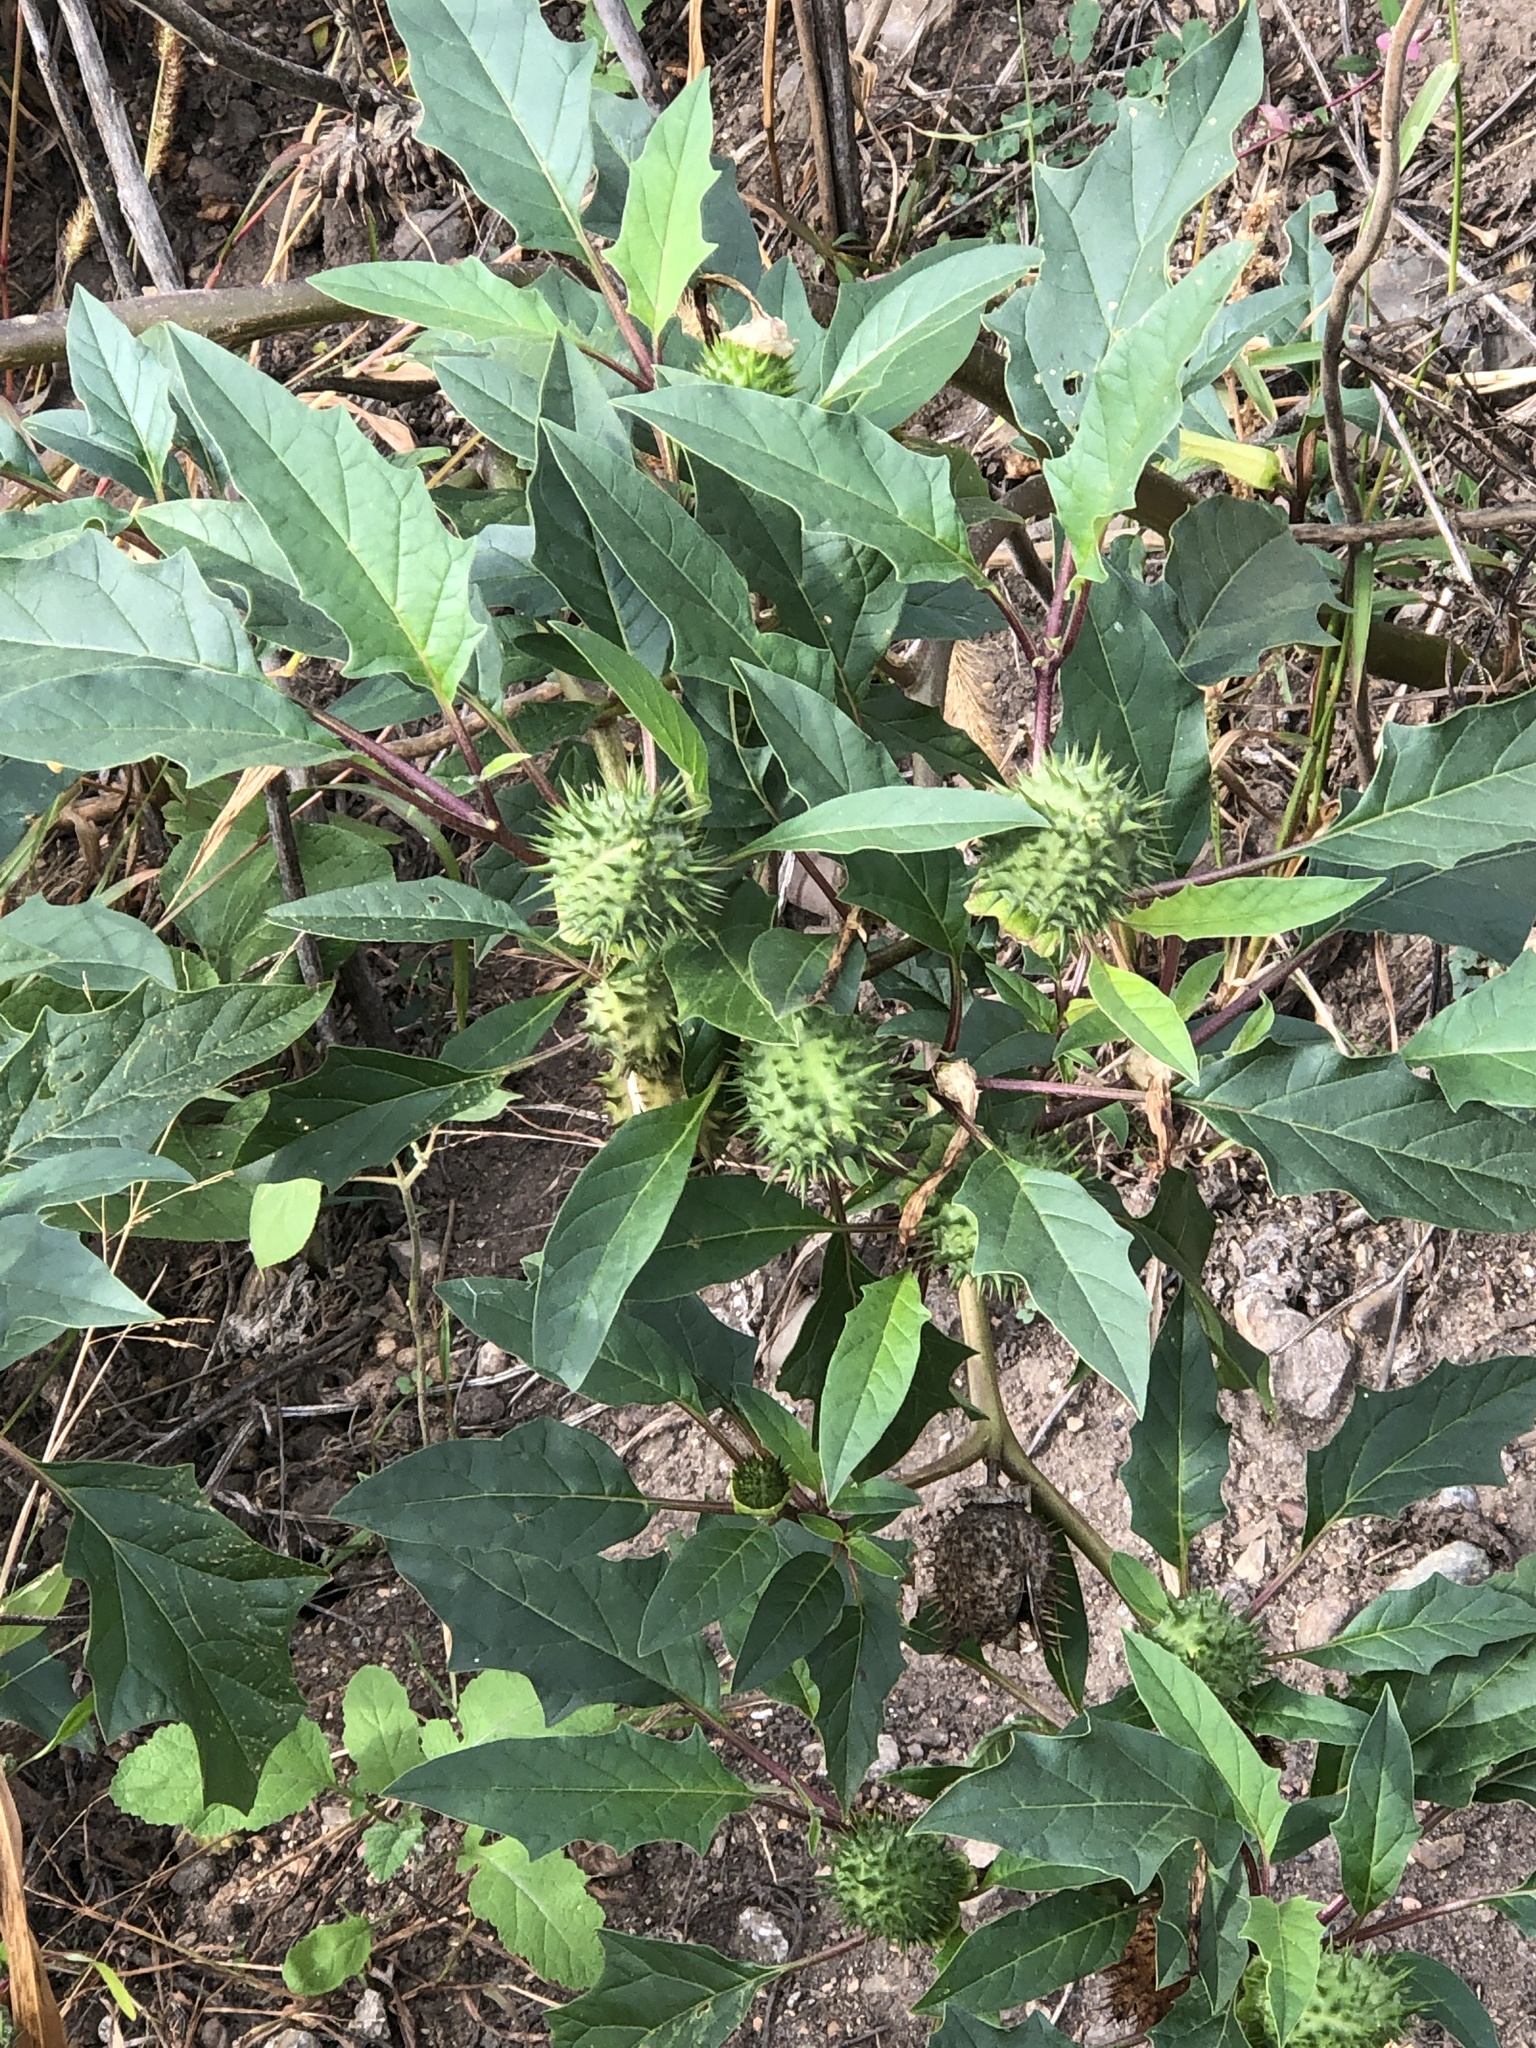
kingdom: Plantae
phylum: Tracheophyta
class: Magnoliopsida
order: Solanales
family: Solanaceae
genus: Datura
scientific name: Datura stramonium
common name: Thorn-apple
